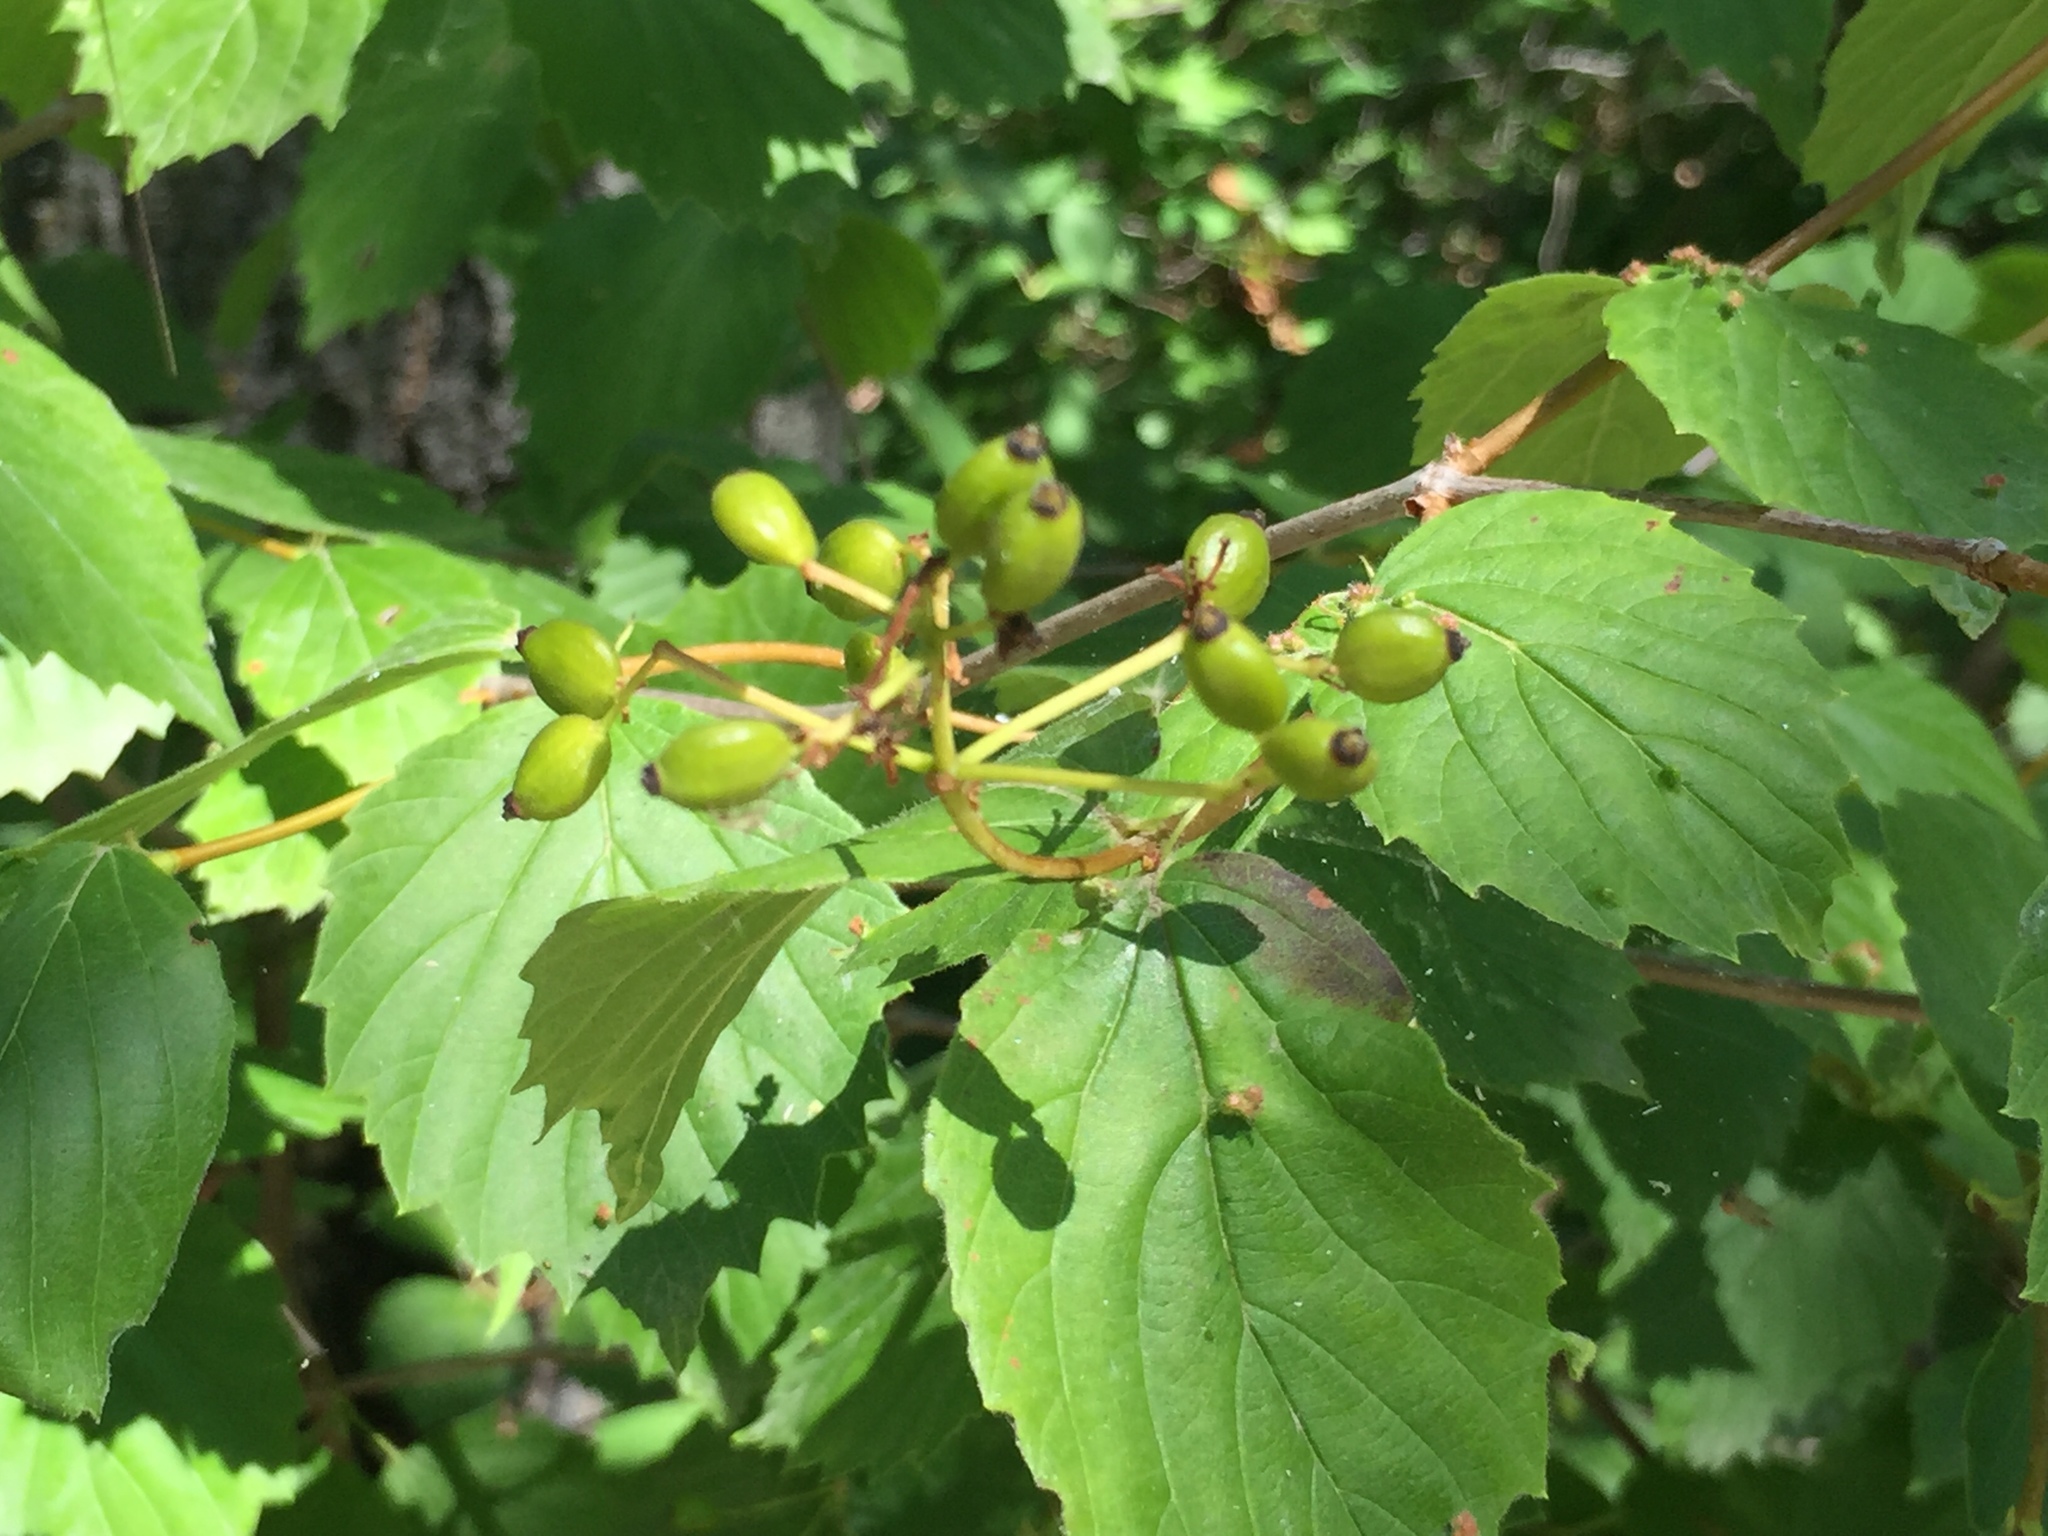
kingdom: Plantae
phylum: Tracheophyta
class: Magnoliopsida
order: Dipsacales
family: Viburnaceae
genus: Viburnum
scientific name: Viburnum rafinesqueanum
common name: Downy arrow-wood
